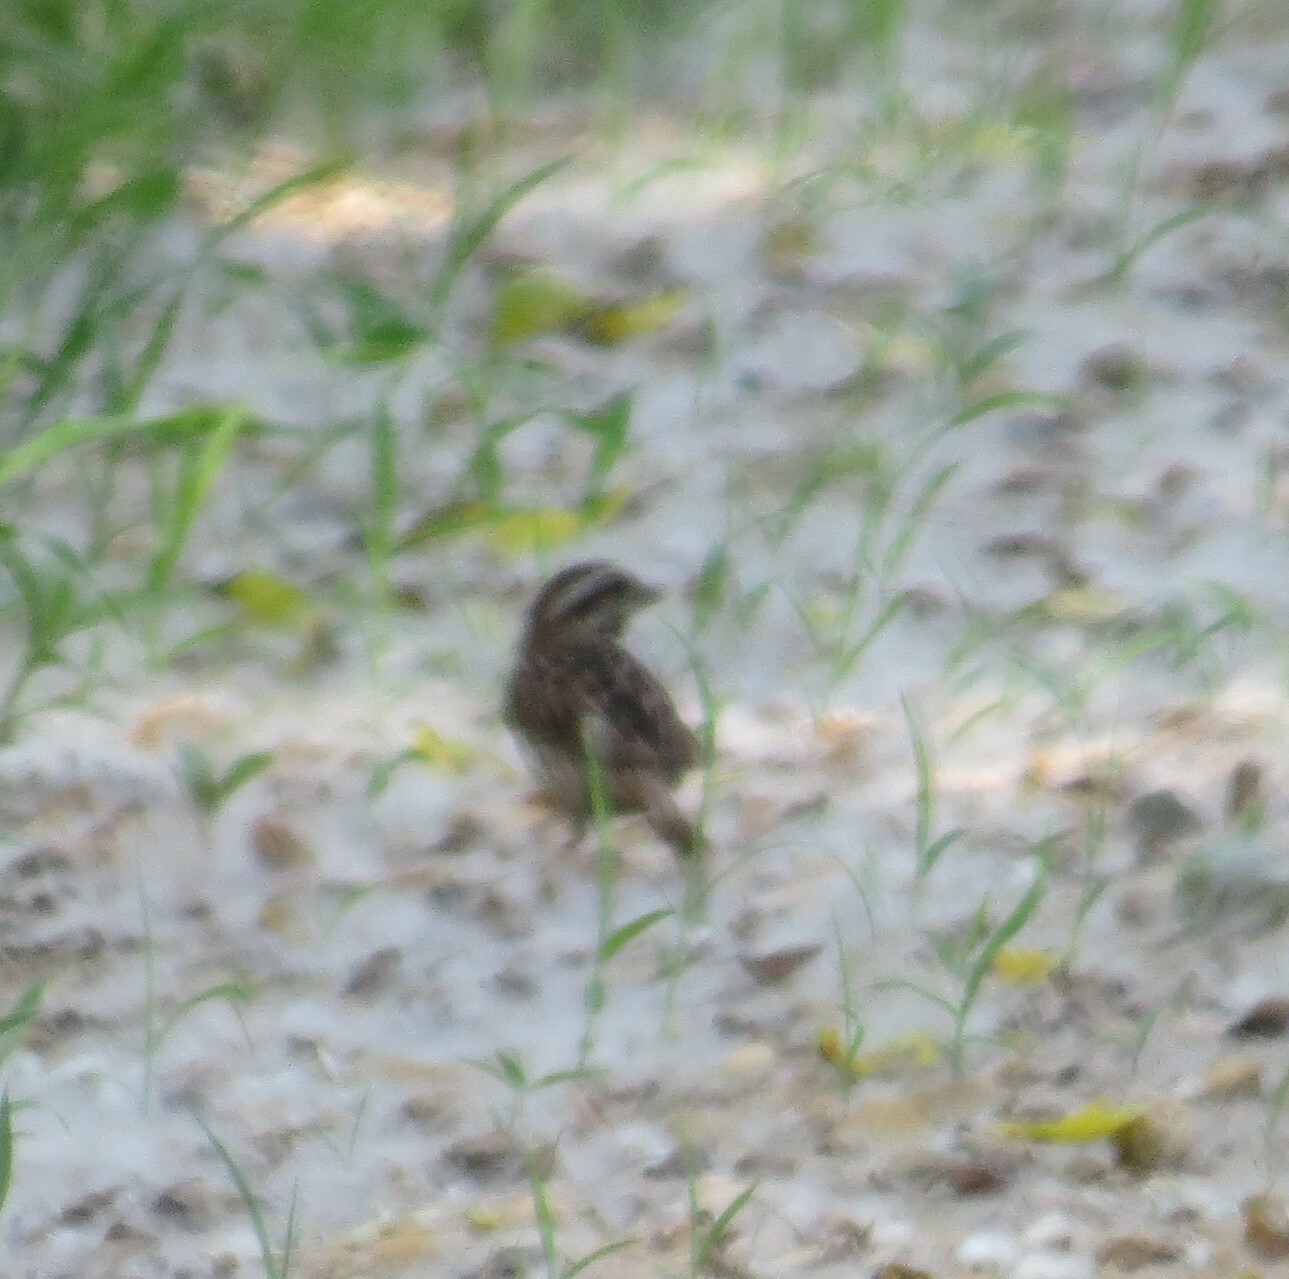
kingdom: Animalia
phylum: Chordata
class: Aves
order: Passeriformes
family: Passerellidae
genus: Melospiza
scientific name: Melospiza melodia
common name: Song sparrow
